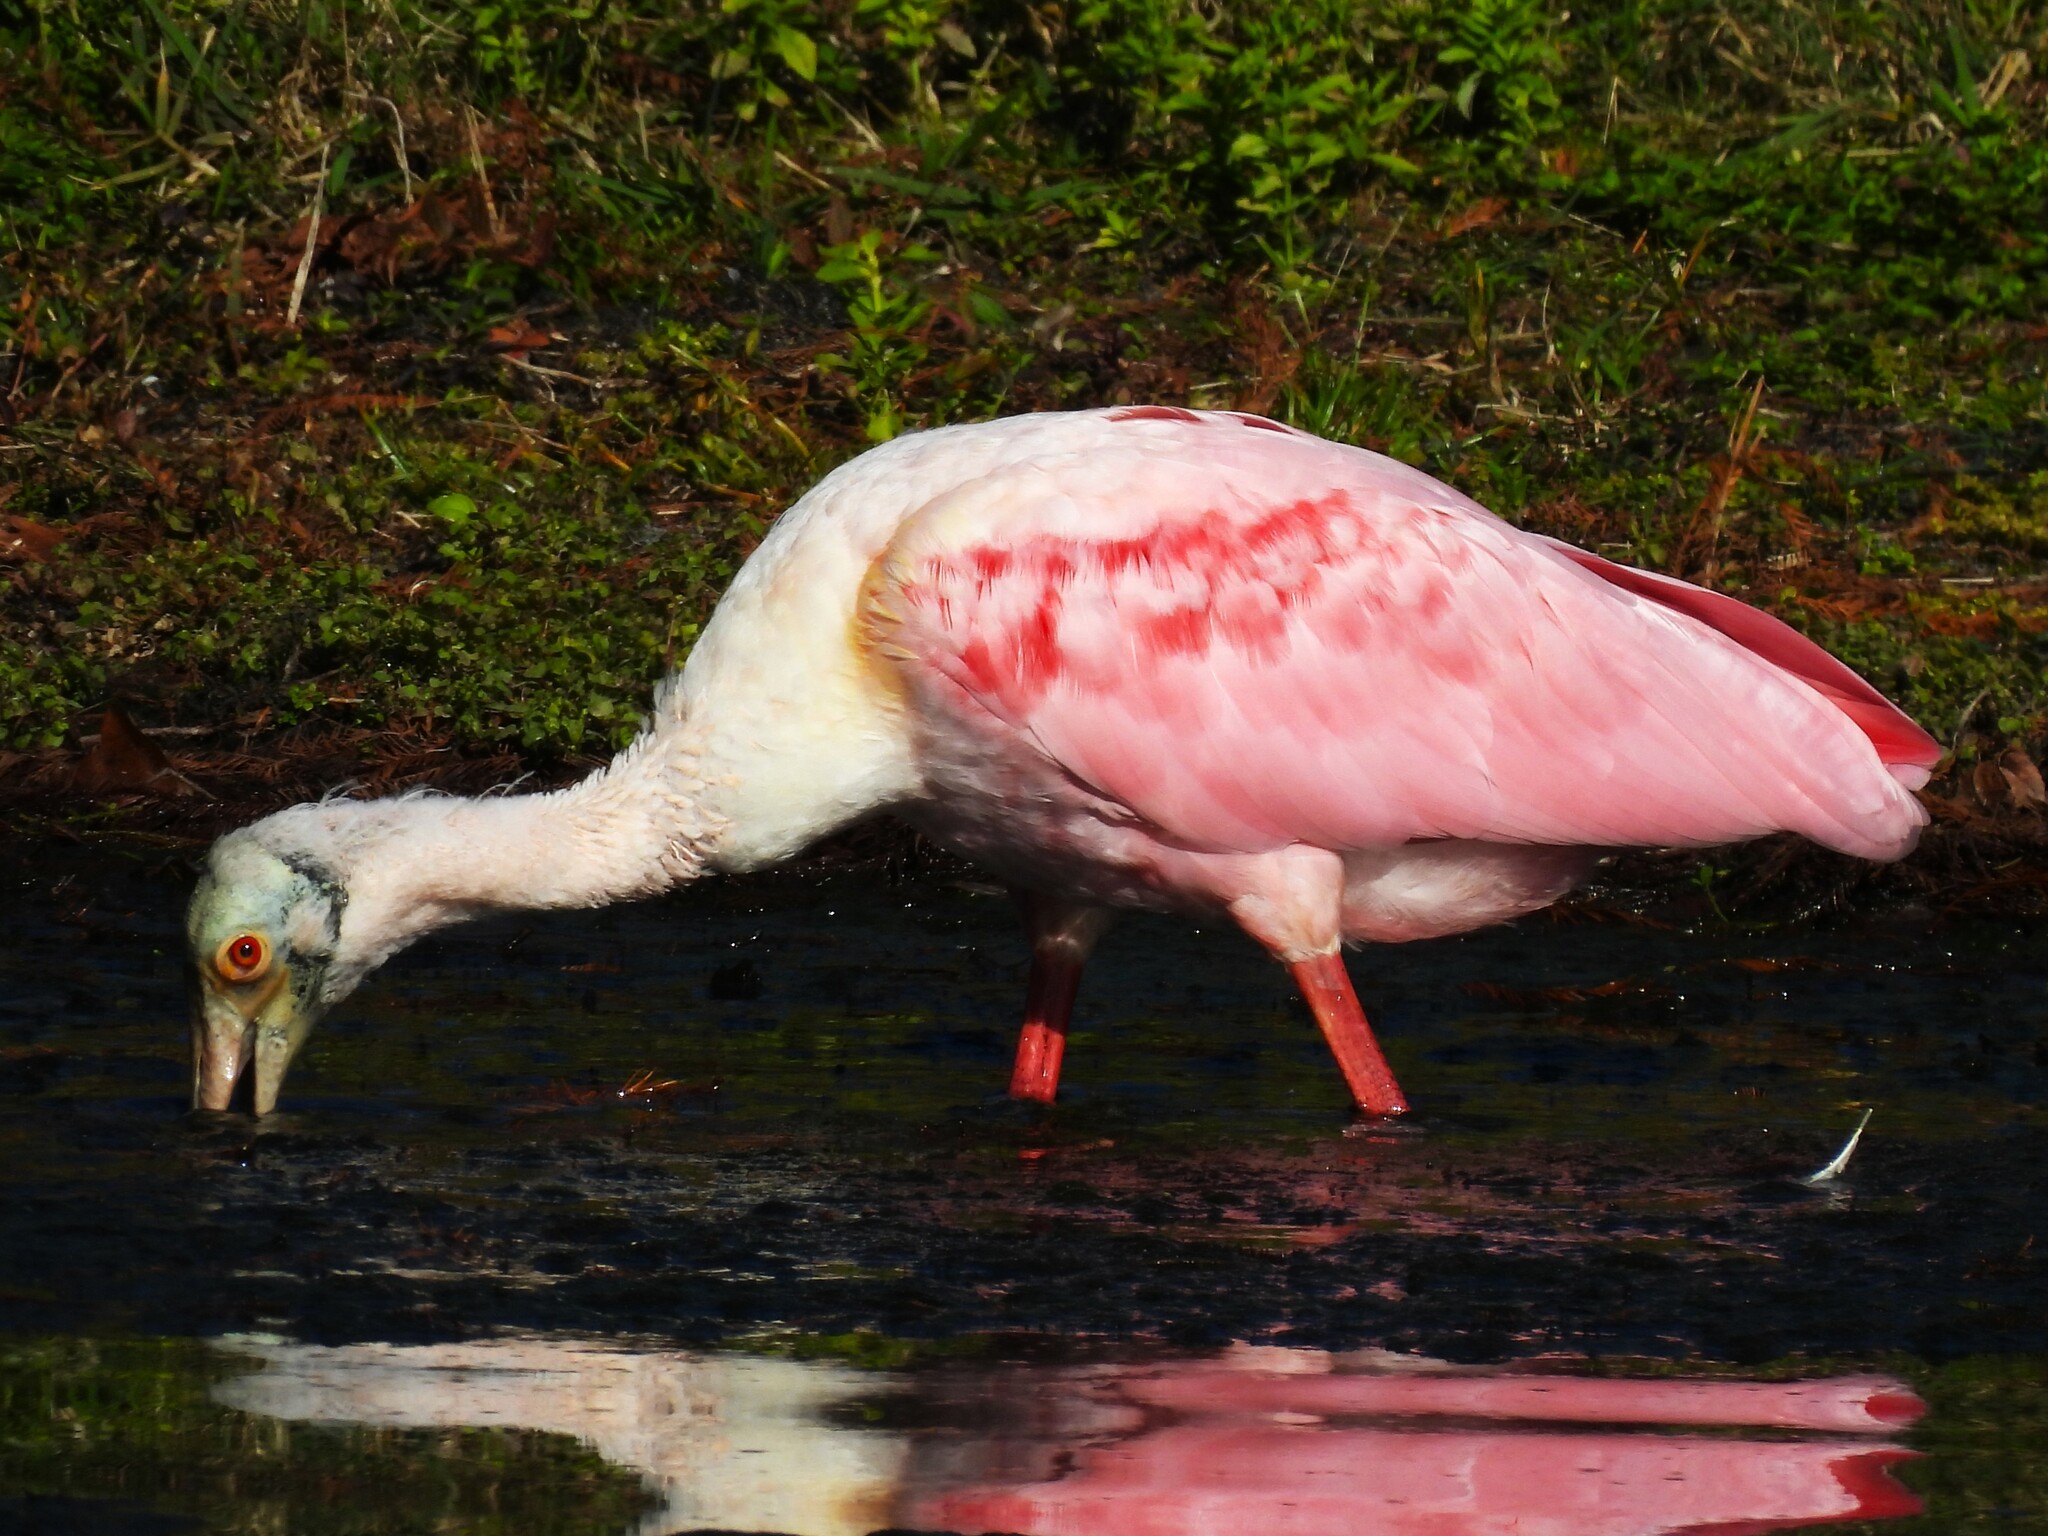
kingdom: Animalia
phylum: Chordata
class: Aves
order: Pelecaniformes
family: Threskiornithidae
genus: Platalea
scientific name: Platalea ajaja
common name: Roseate spoonbill
